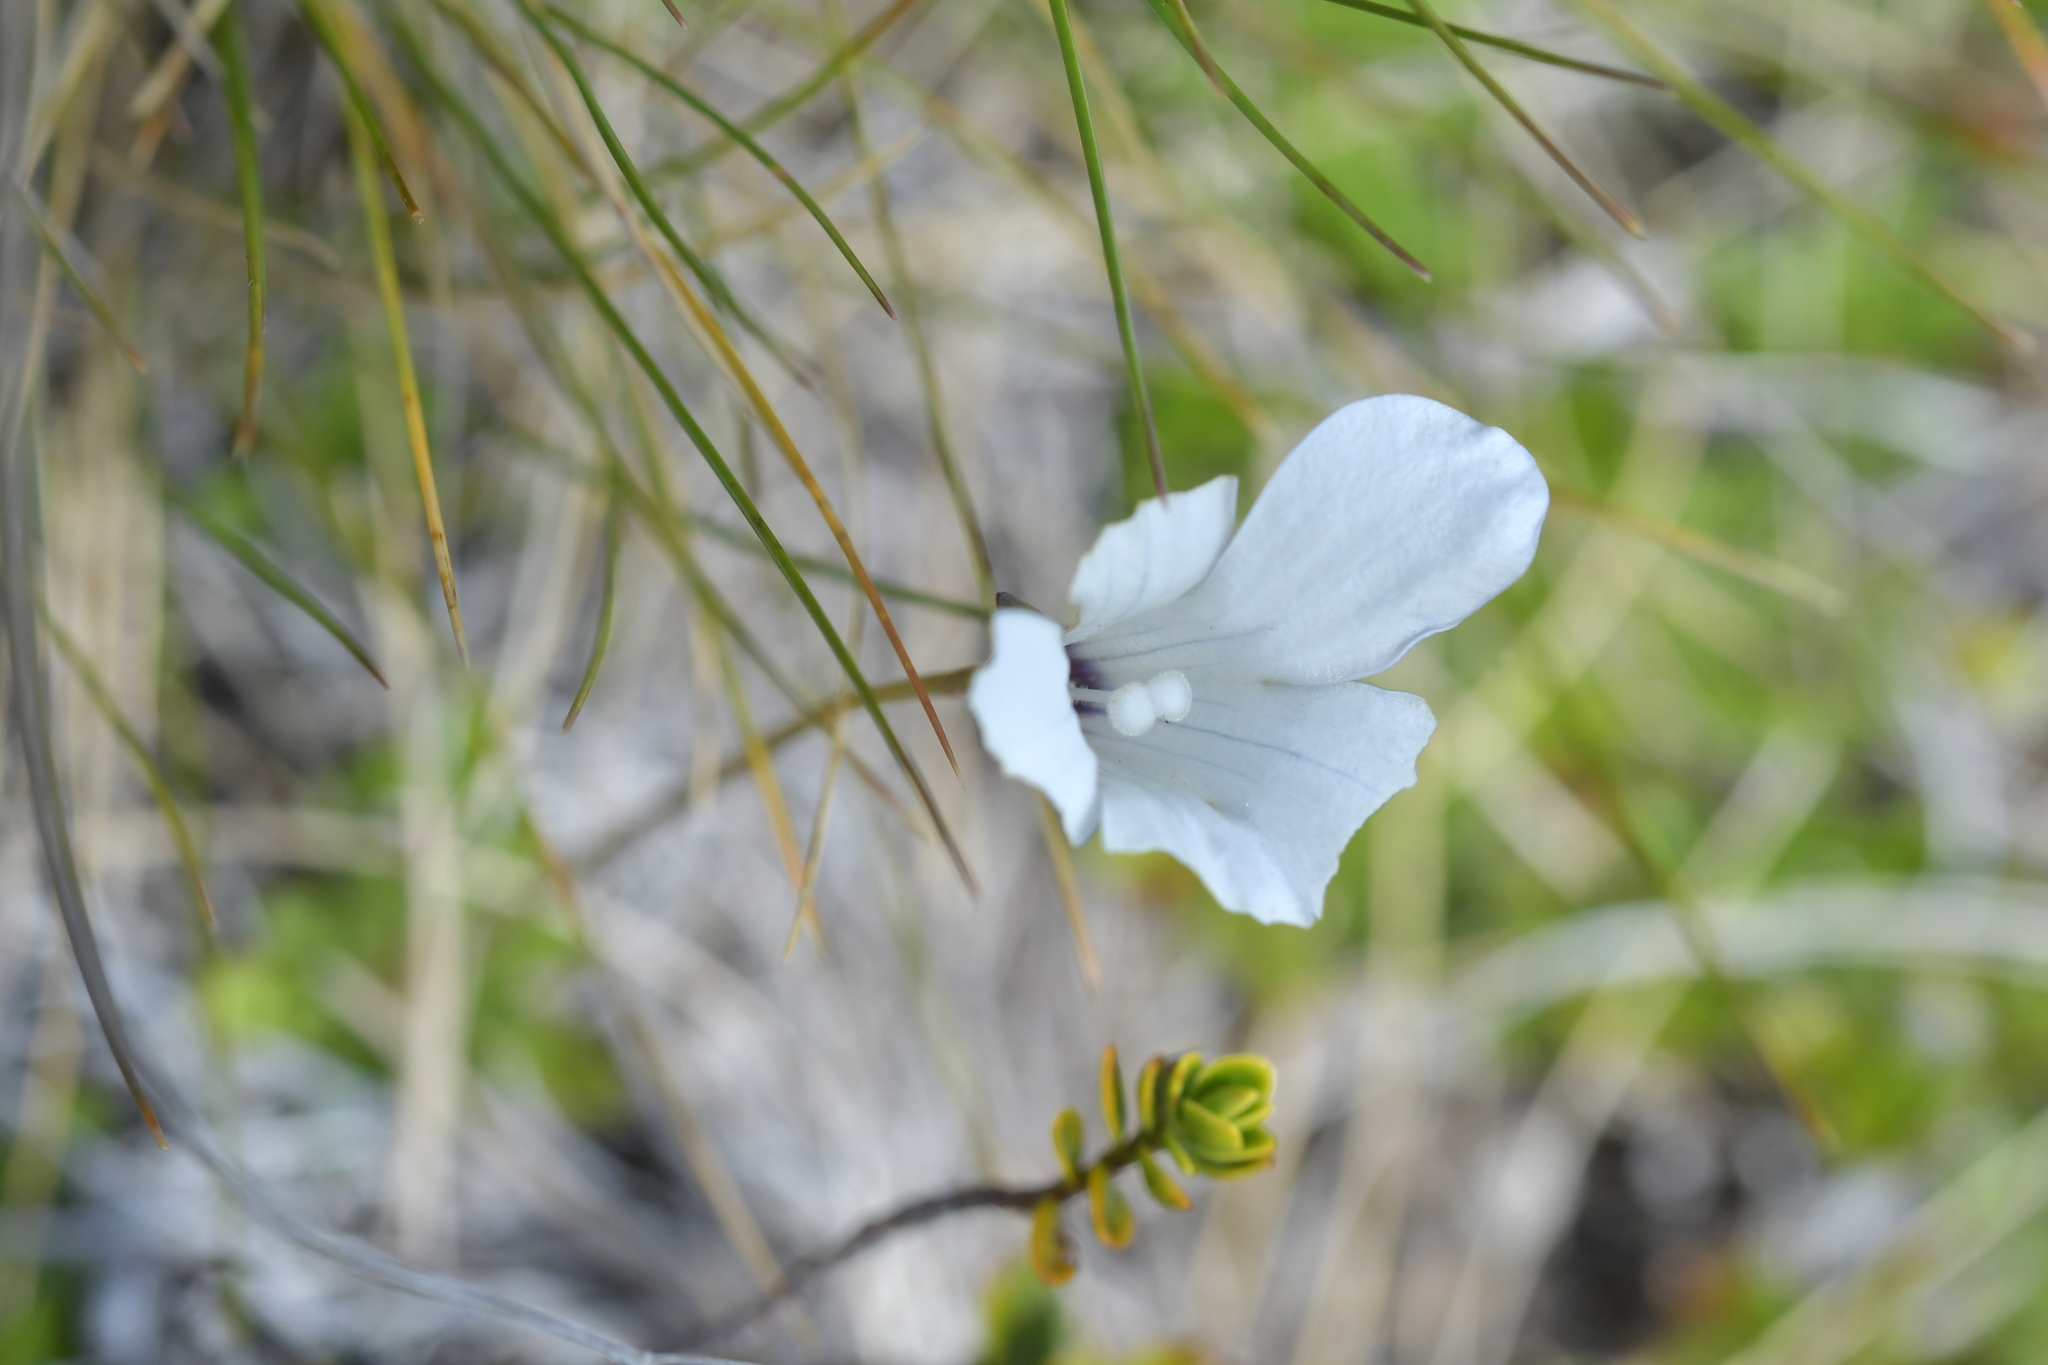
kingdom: Plantae
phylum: Tracheophyta
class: Magnoliopsida
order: Asterales
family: Campanulaceae
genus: Wahlenbergia
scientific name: Wahlenbergia albomarginata
